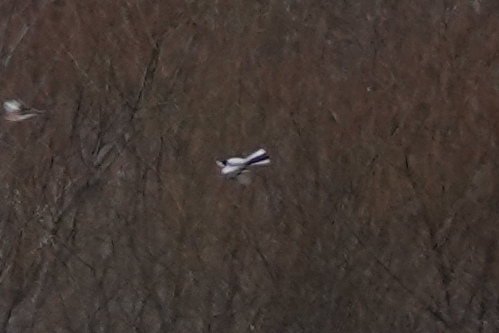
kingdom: Animalia
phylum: Chordata
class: Aves
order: Passeriformes
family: Motacillidae
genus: Motacilla
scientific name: Motacilla alba
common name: White wagtail
